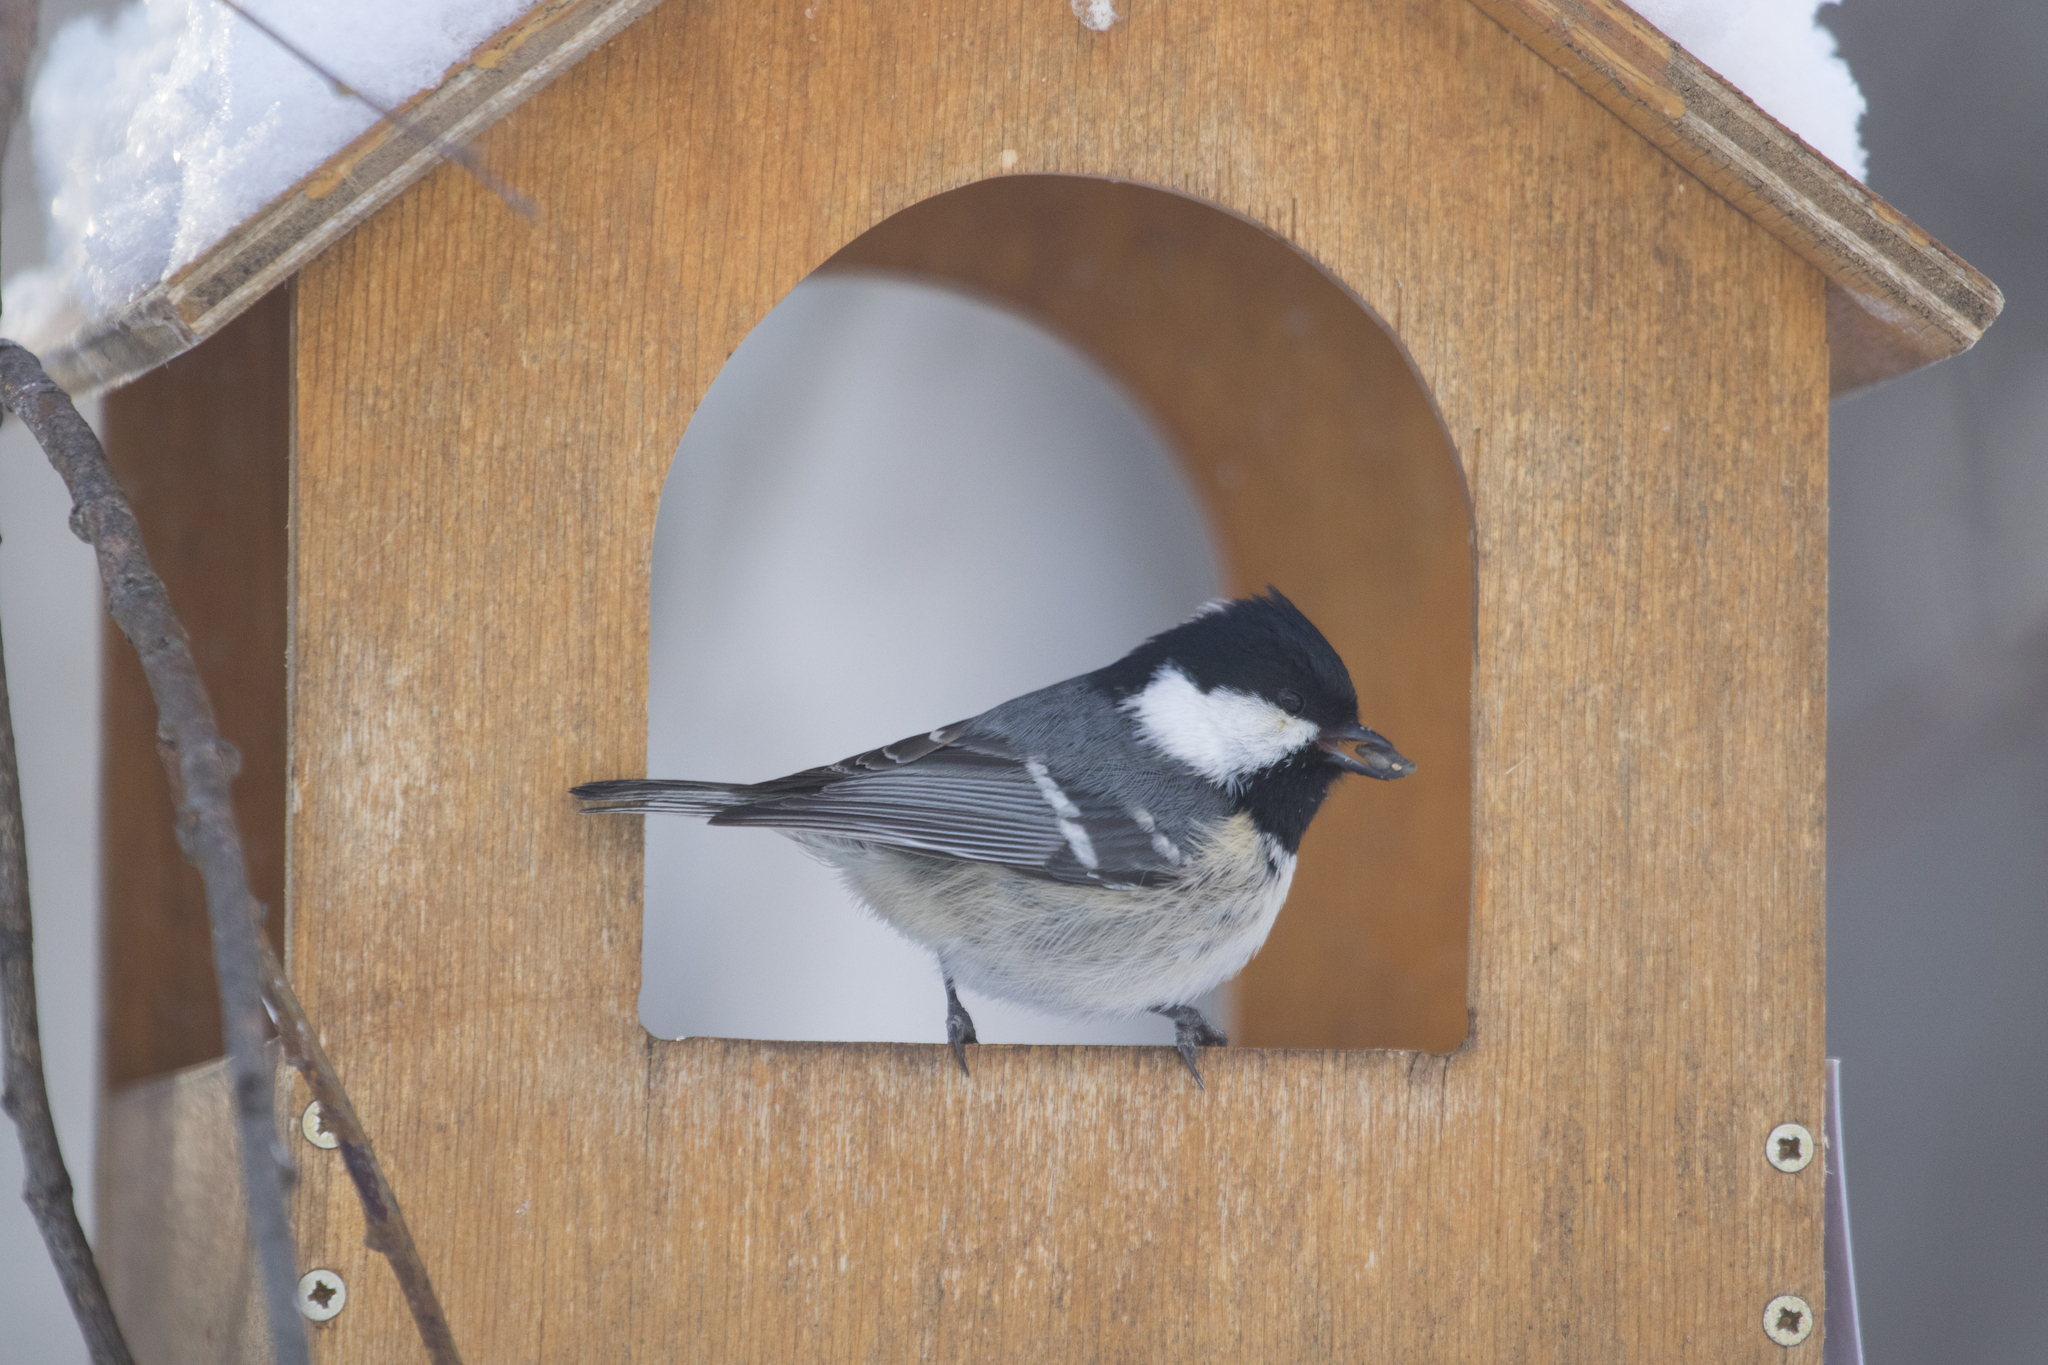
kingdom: Animalia
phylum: Chordata
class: Aves
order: Passeriformes
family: Paridae
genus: Periparus
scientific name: Periparus ater
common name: Coal tit
